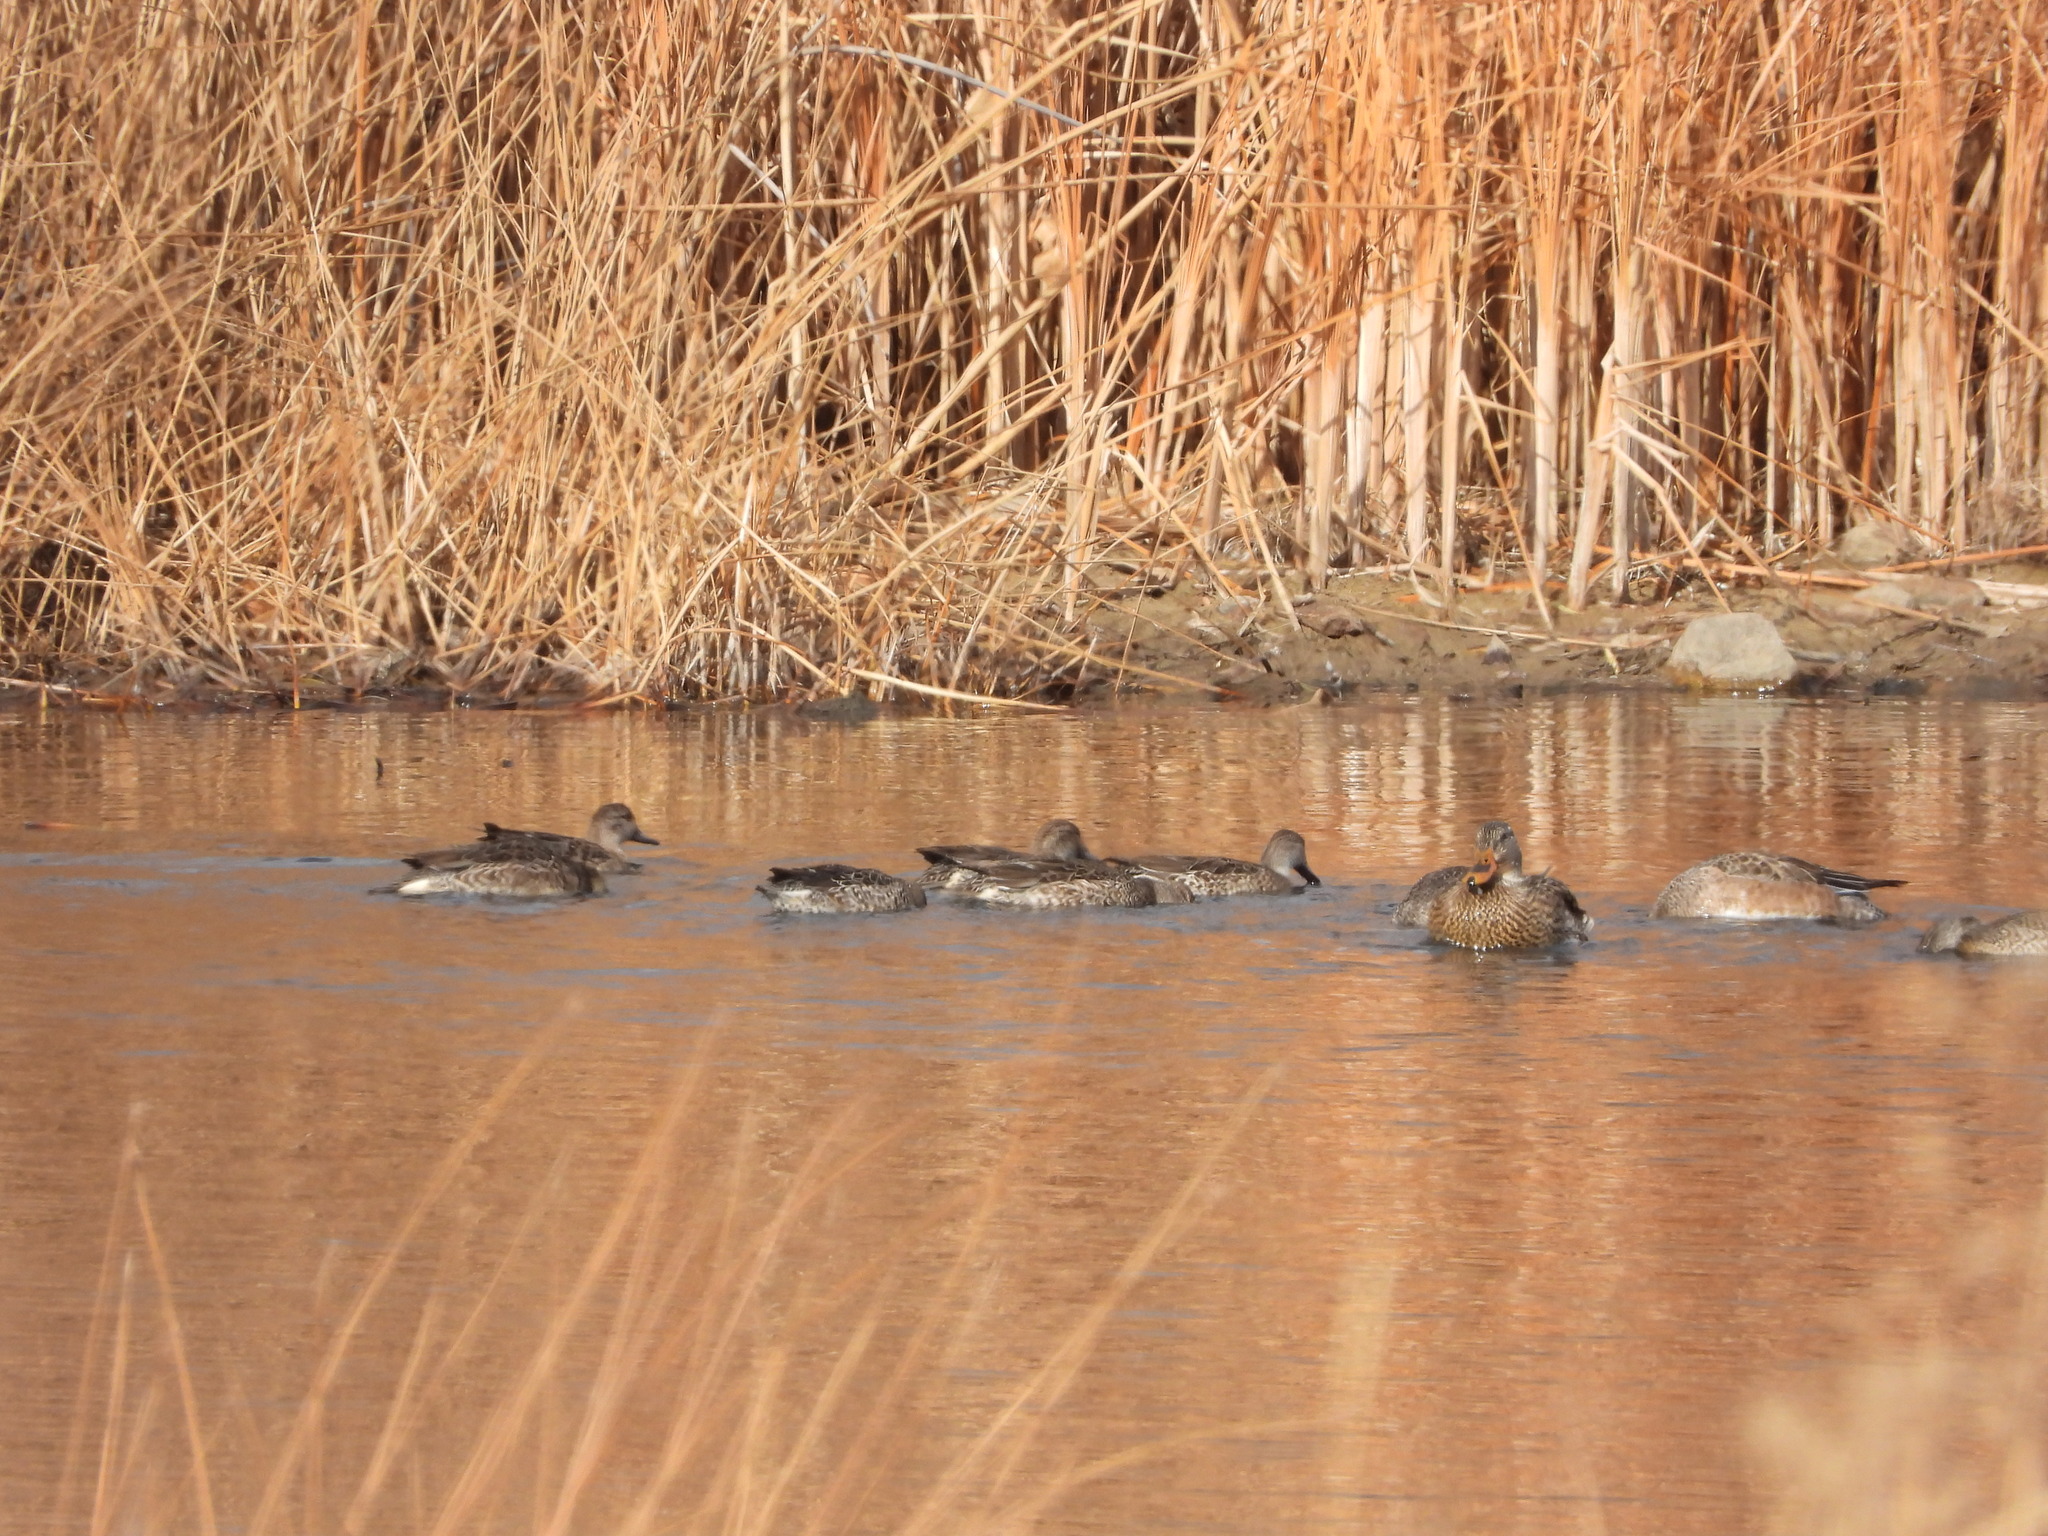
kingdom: Animalia
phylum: Chordata
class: Aves
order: Anseriformes
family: Anatidae
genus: Anas
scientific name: Anas platyrhynchos
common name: Mallard
